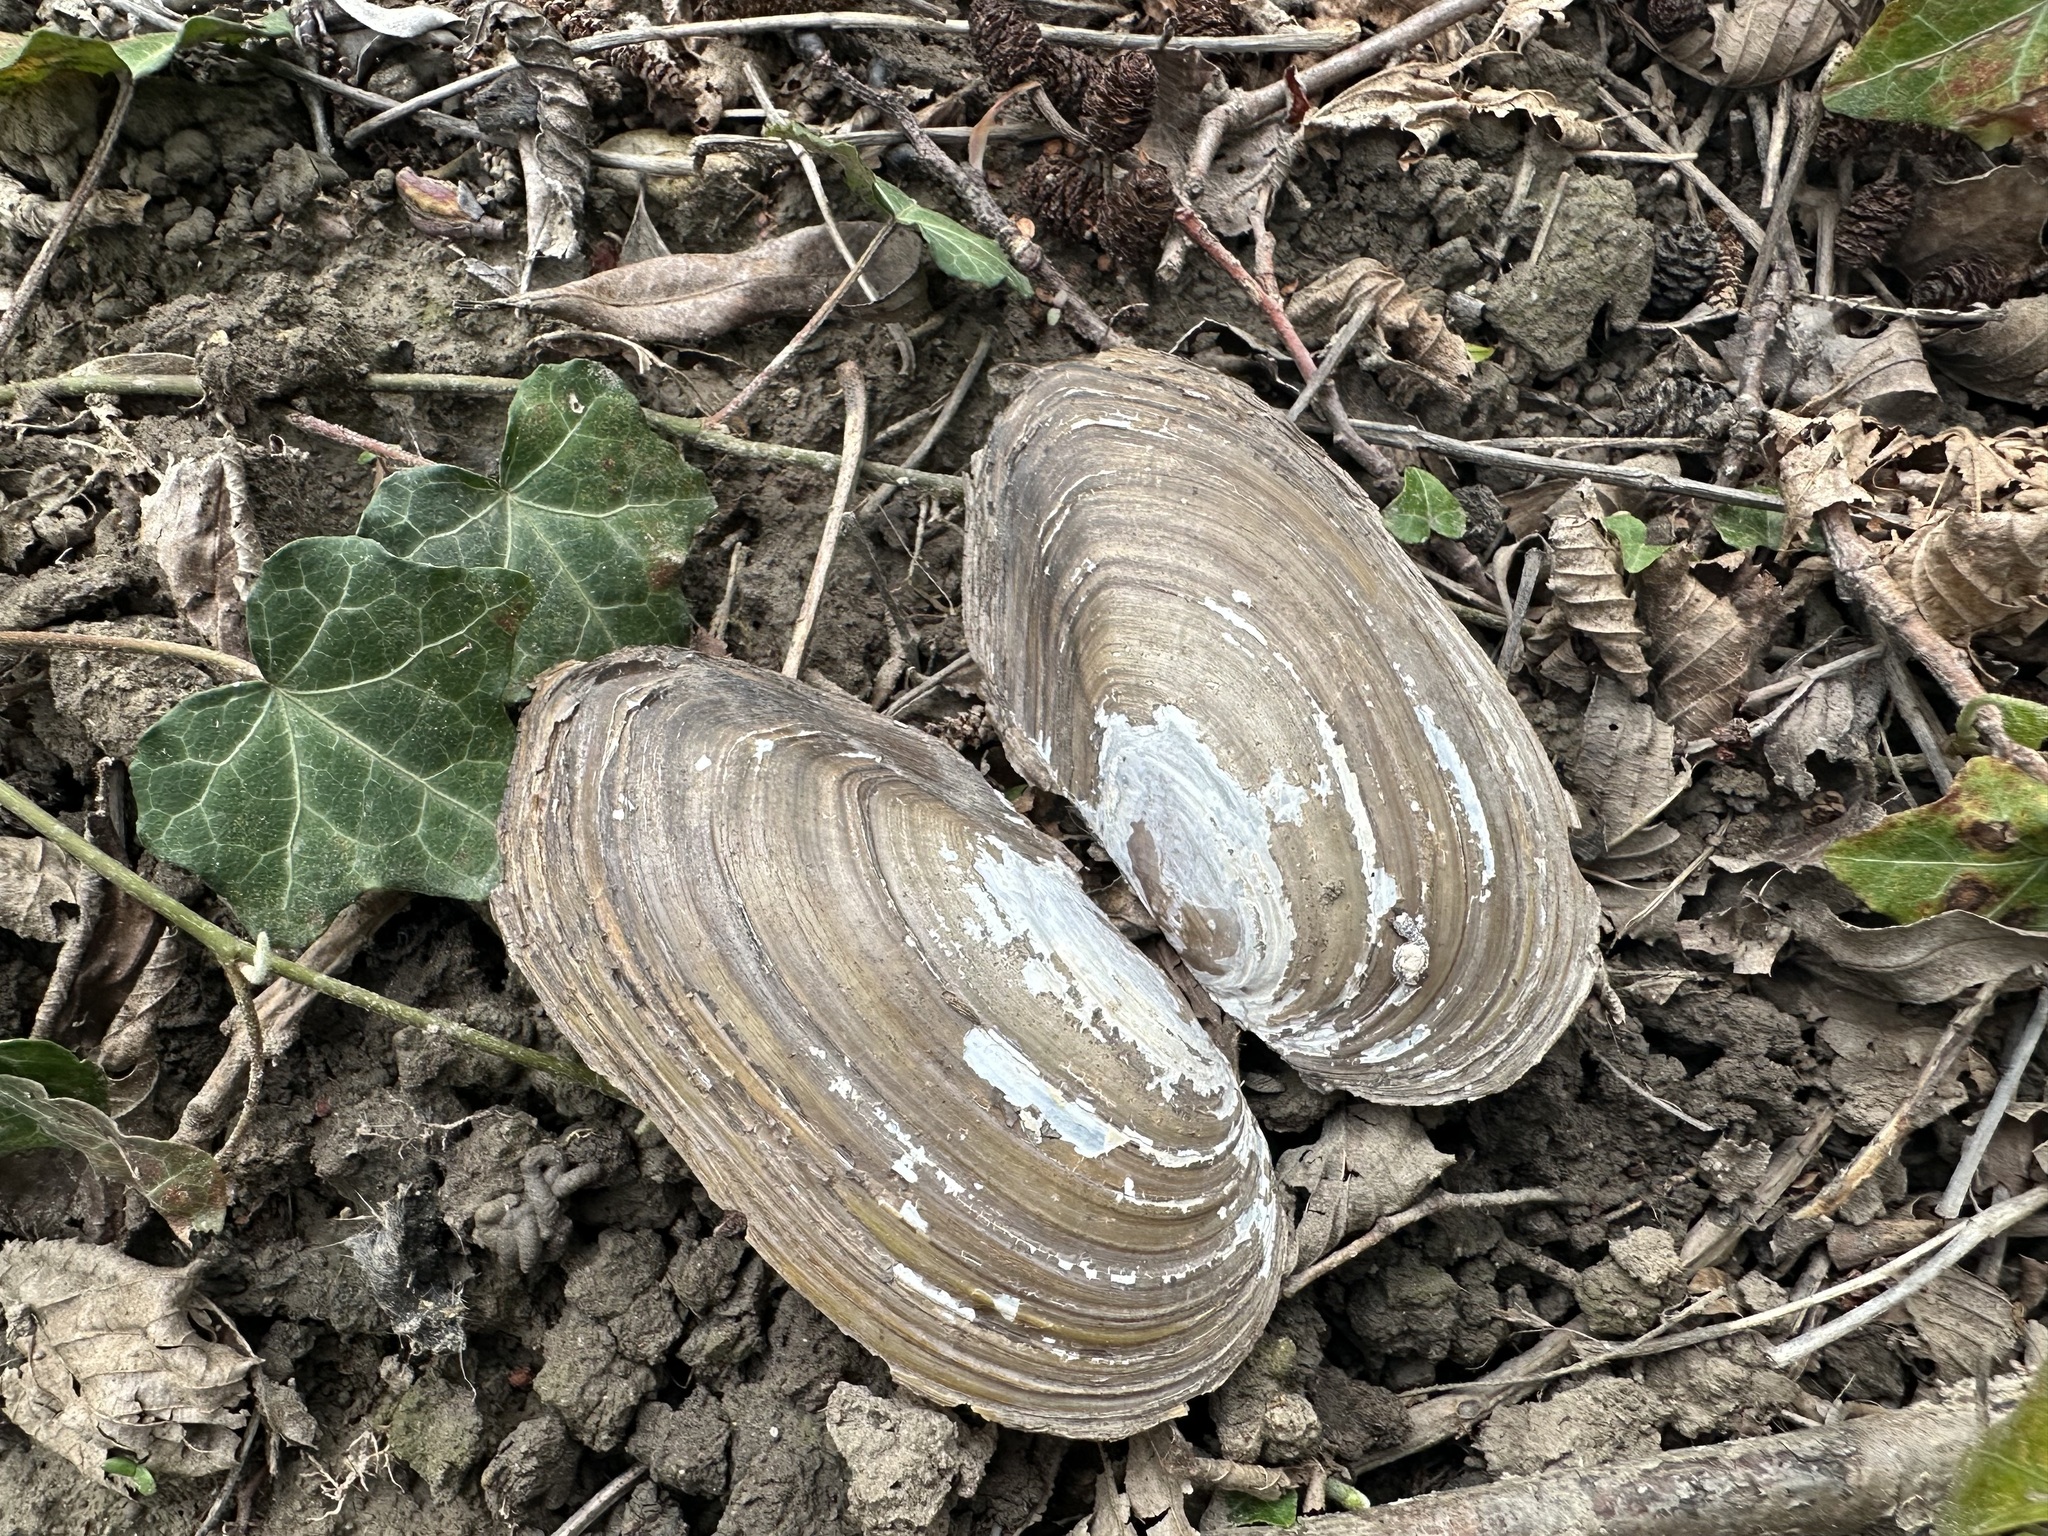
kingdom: Animalia
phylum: Mollusca
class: Bivalvia
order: Unionida
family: Unionidae
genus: Anodonta
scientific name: Anodonta cygnea
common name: Swan mussel
